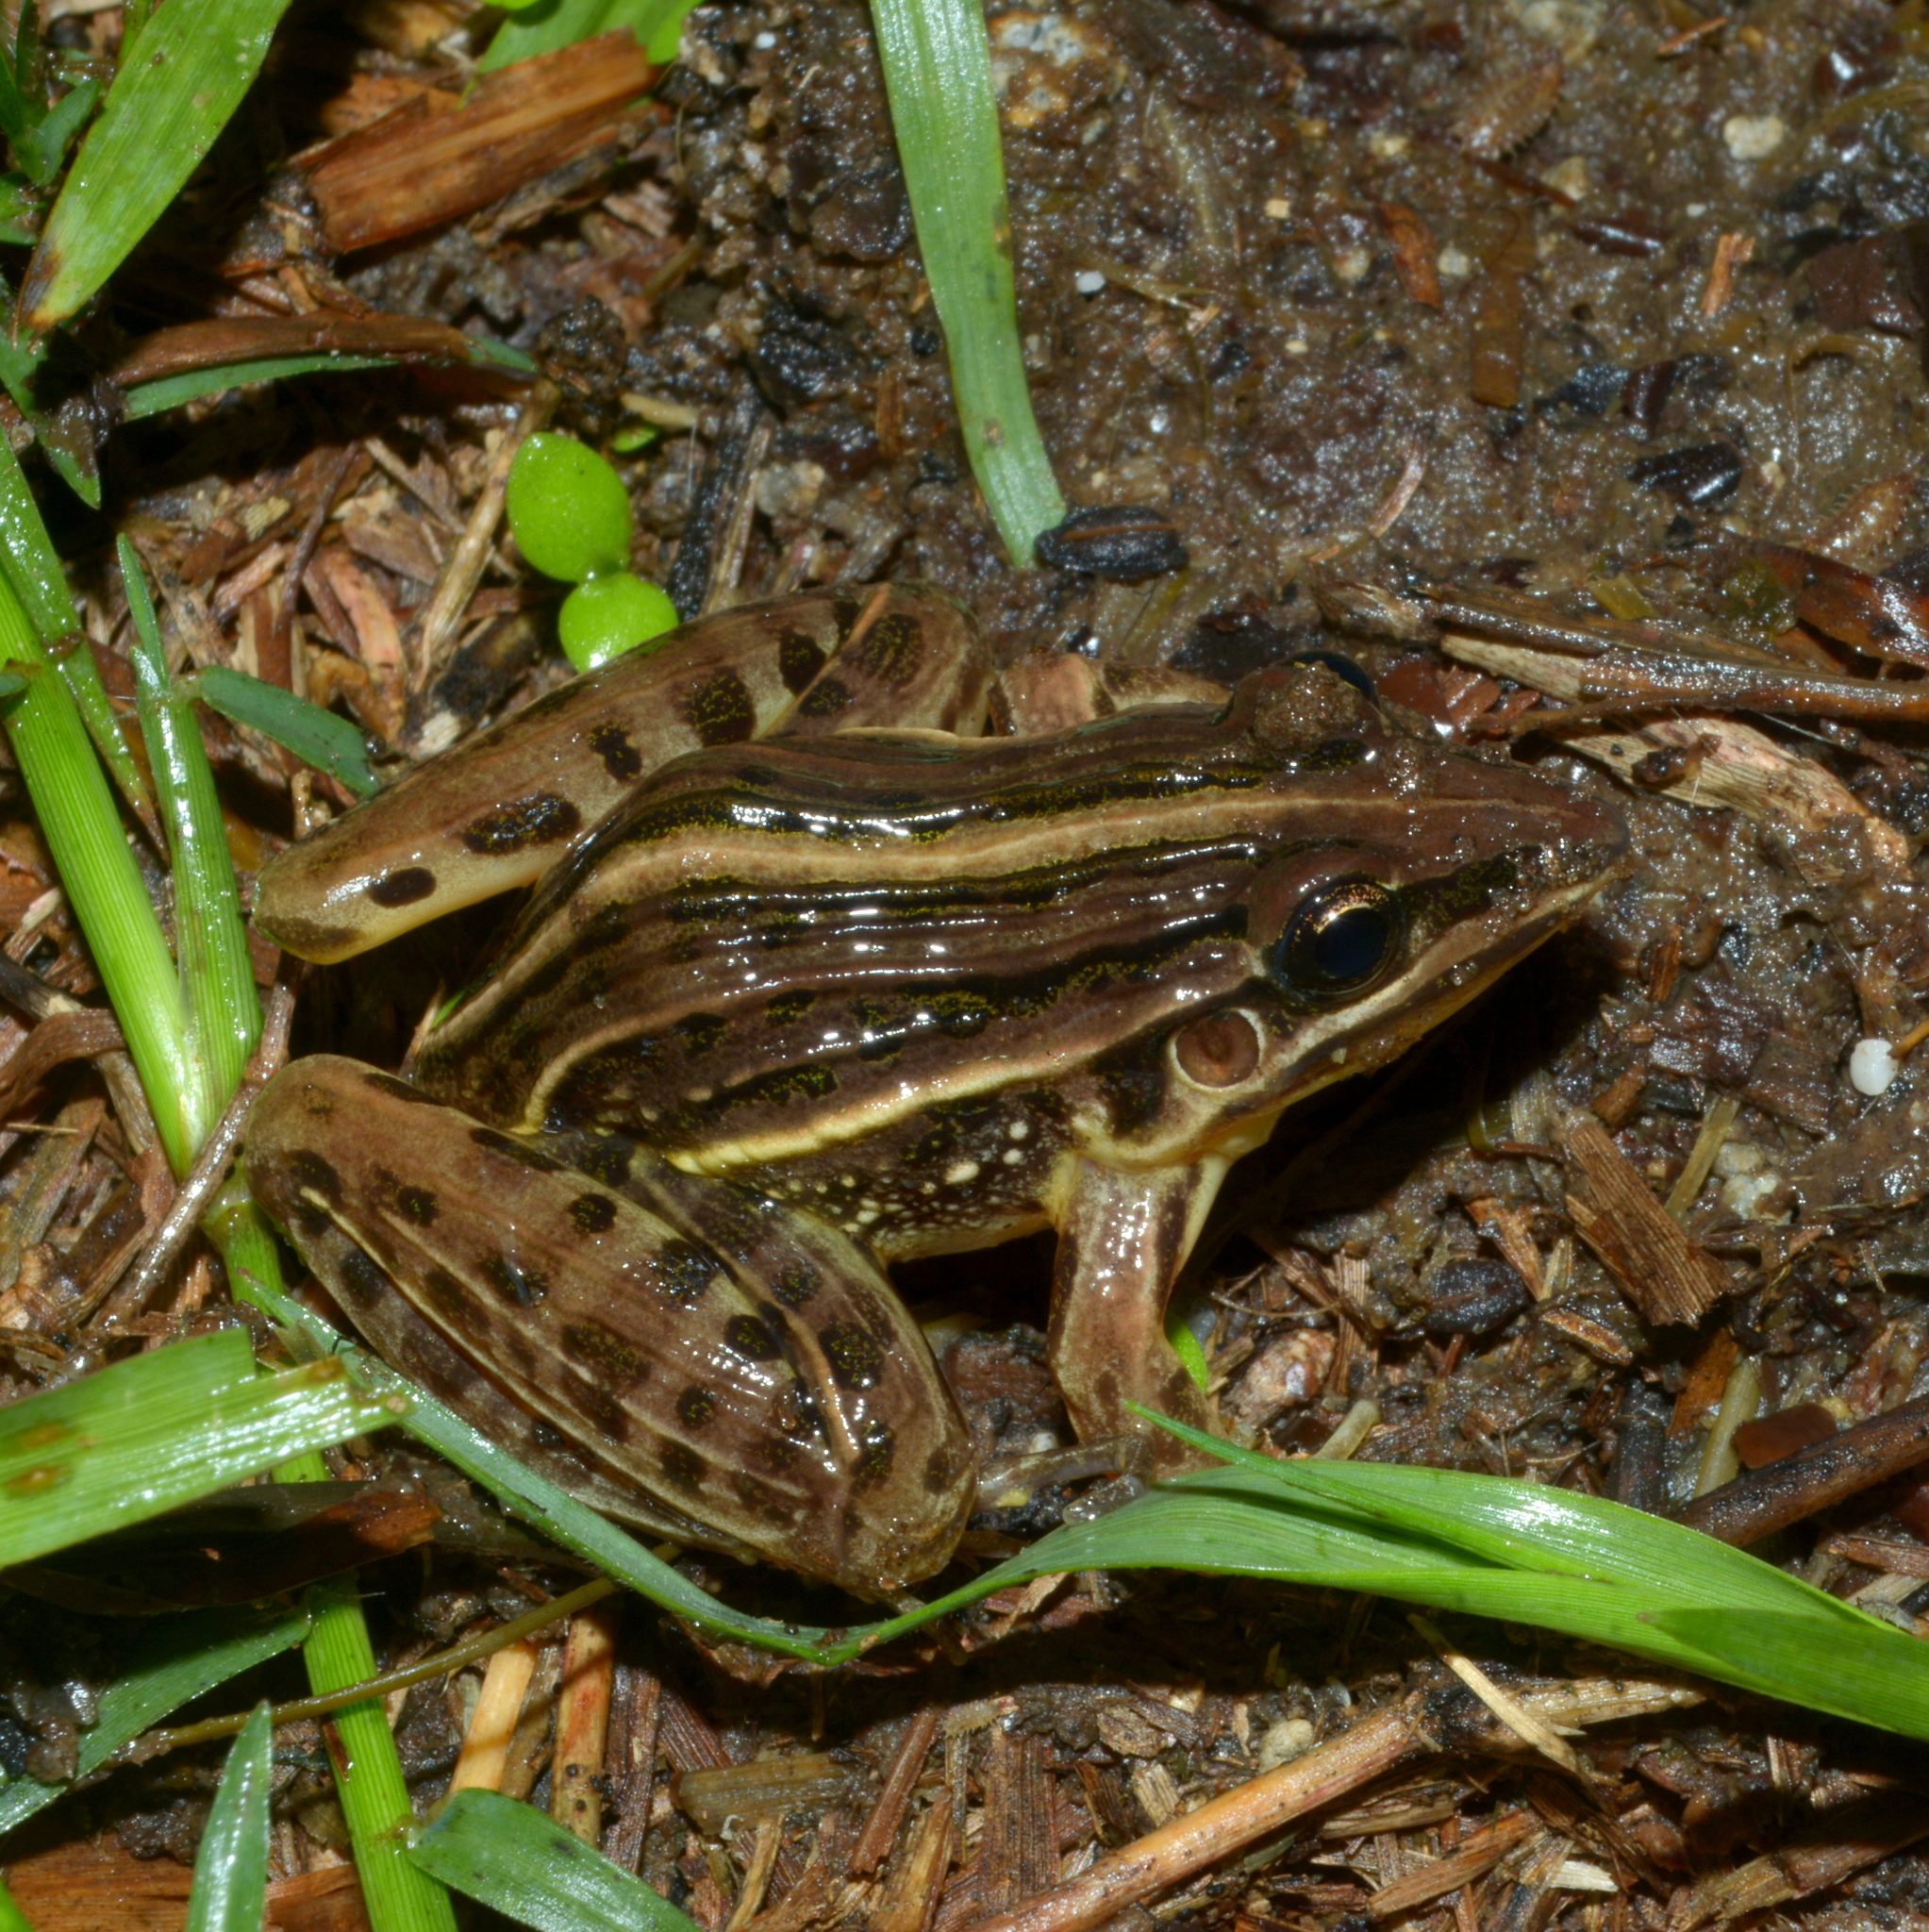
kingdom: Animalia
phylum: Chordata
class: Amphibia
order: Anura
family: Leptodactylidae
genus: Leptodactylus
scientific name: Leptodactylus gracilis
